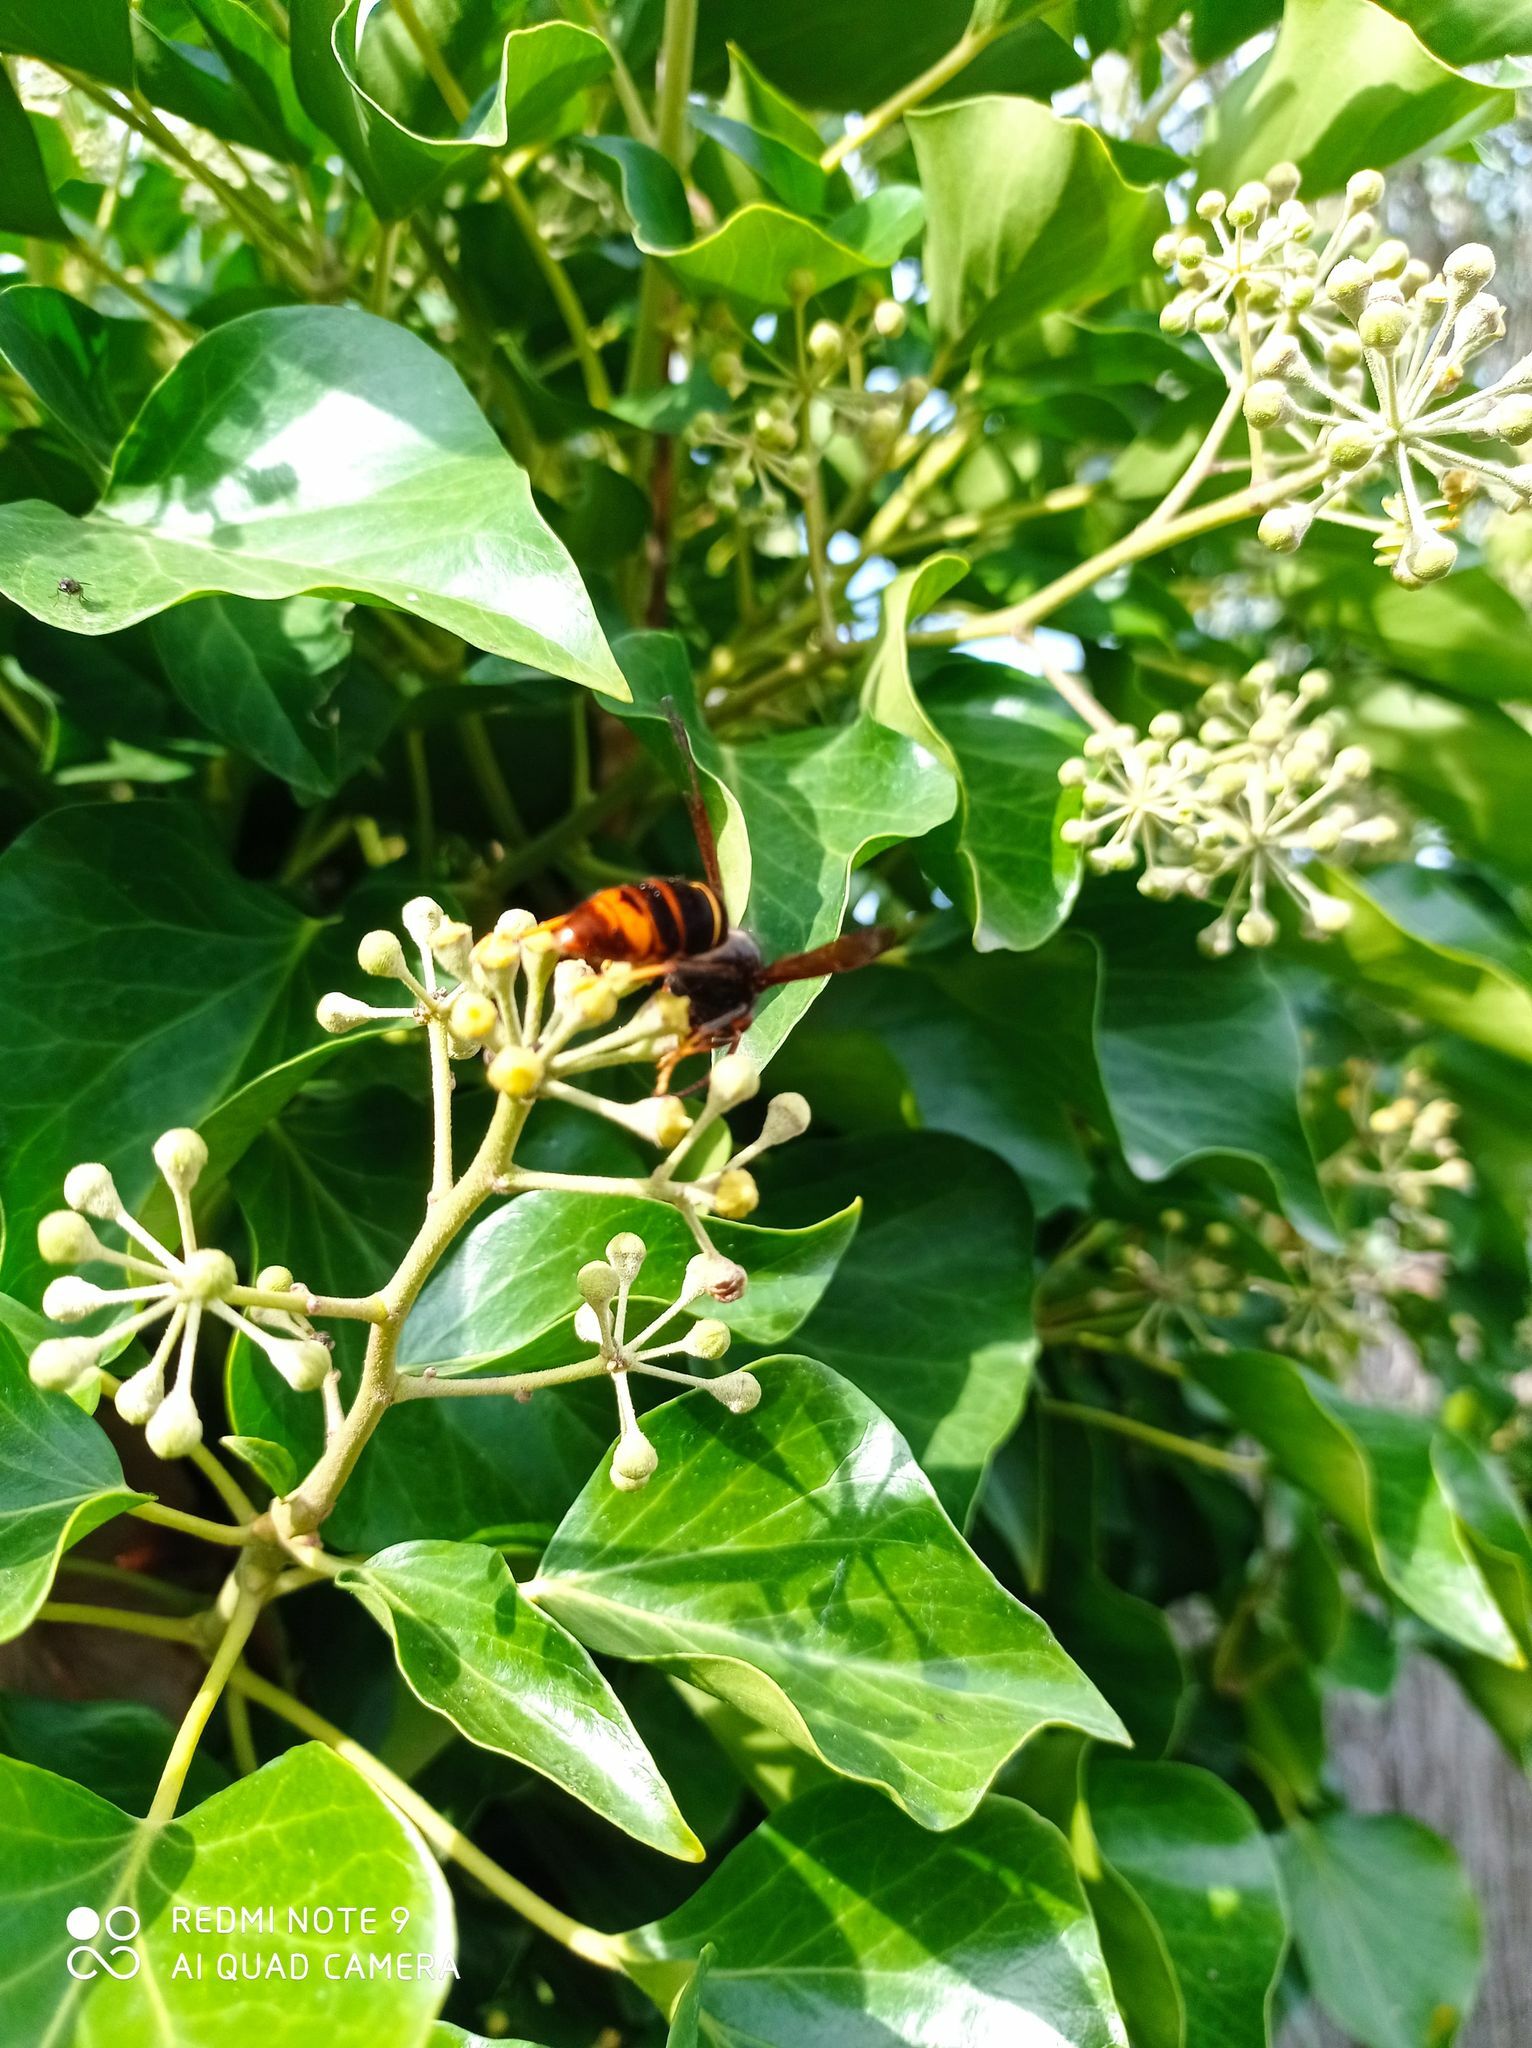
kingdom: Animalia
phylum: Arthropoda
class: Insecta
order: Hymenoptera
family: Vespidae
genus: Vespa
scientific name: Vespa velutina
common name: Asian hornet
